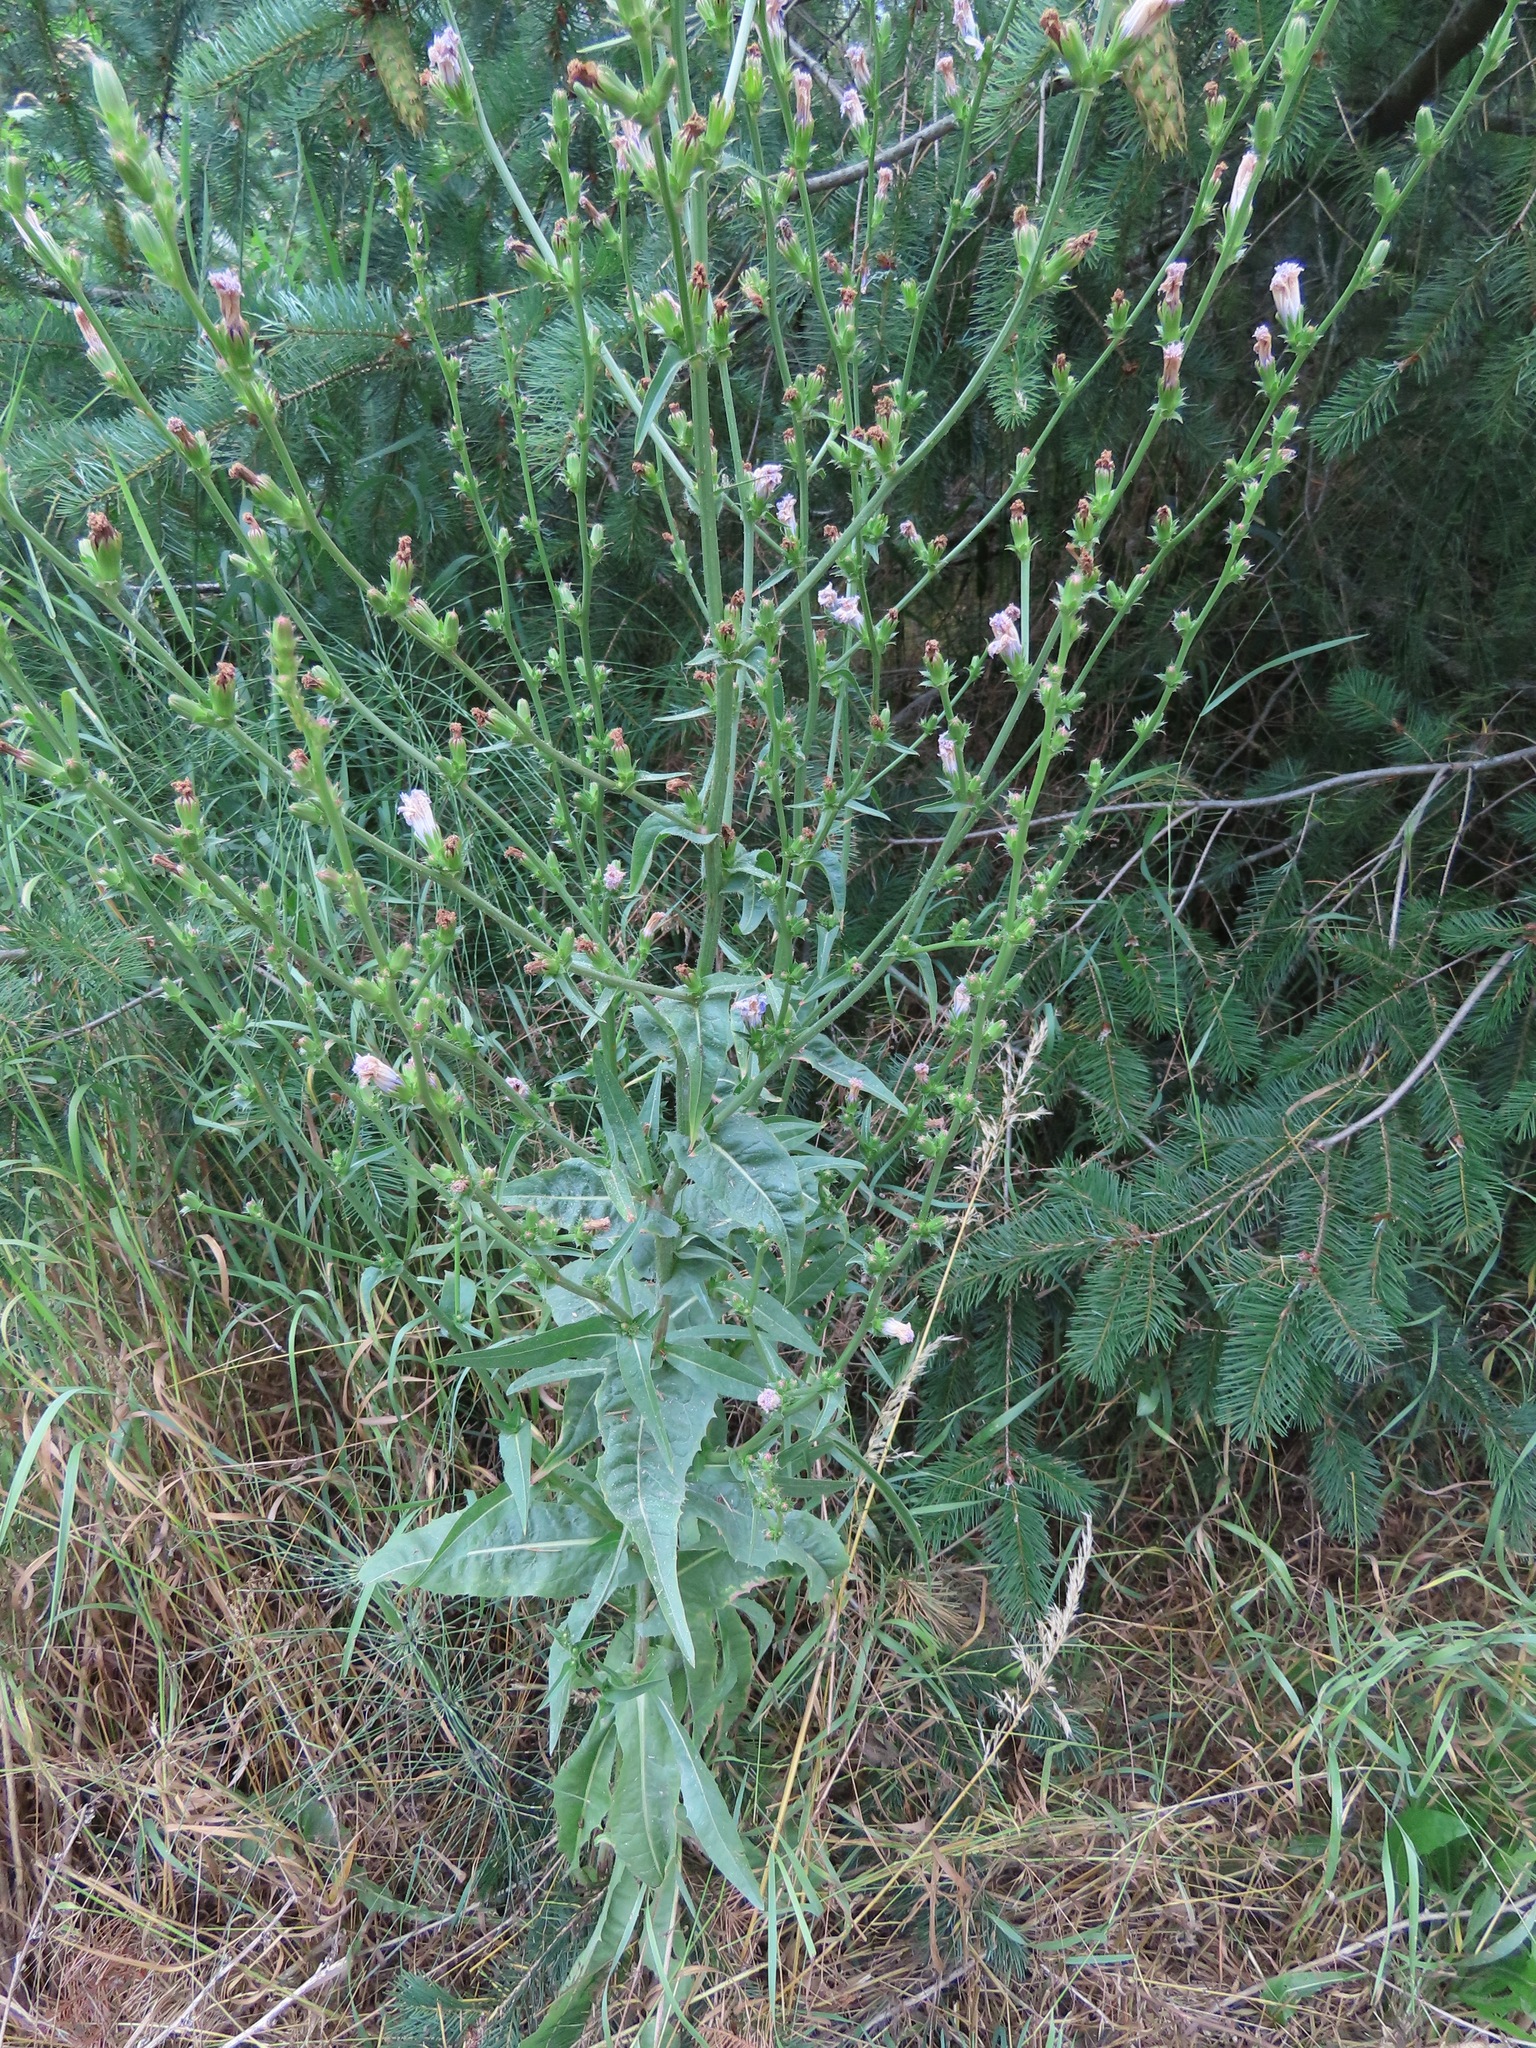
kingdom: Plantae
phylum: Tracheophyta
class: Magnoliopsida
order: Asterales
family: Asteraceae
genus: Cichorium
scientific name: Cichorium intybus
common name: Chicory
